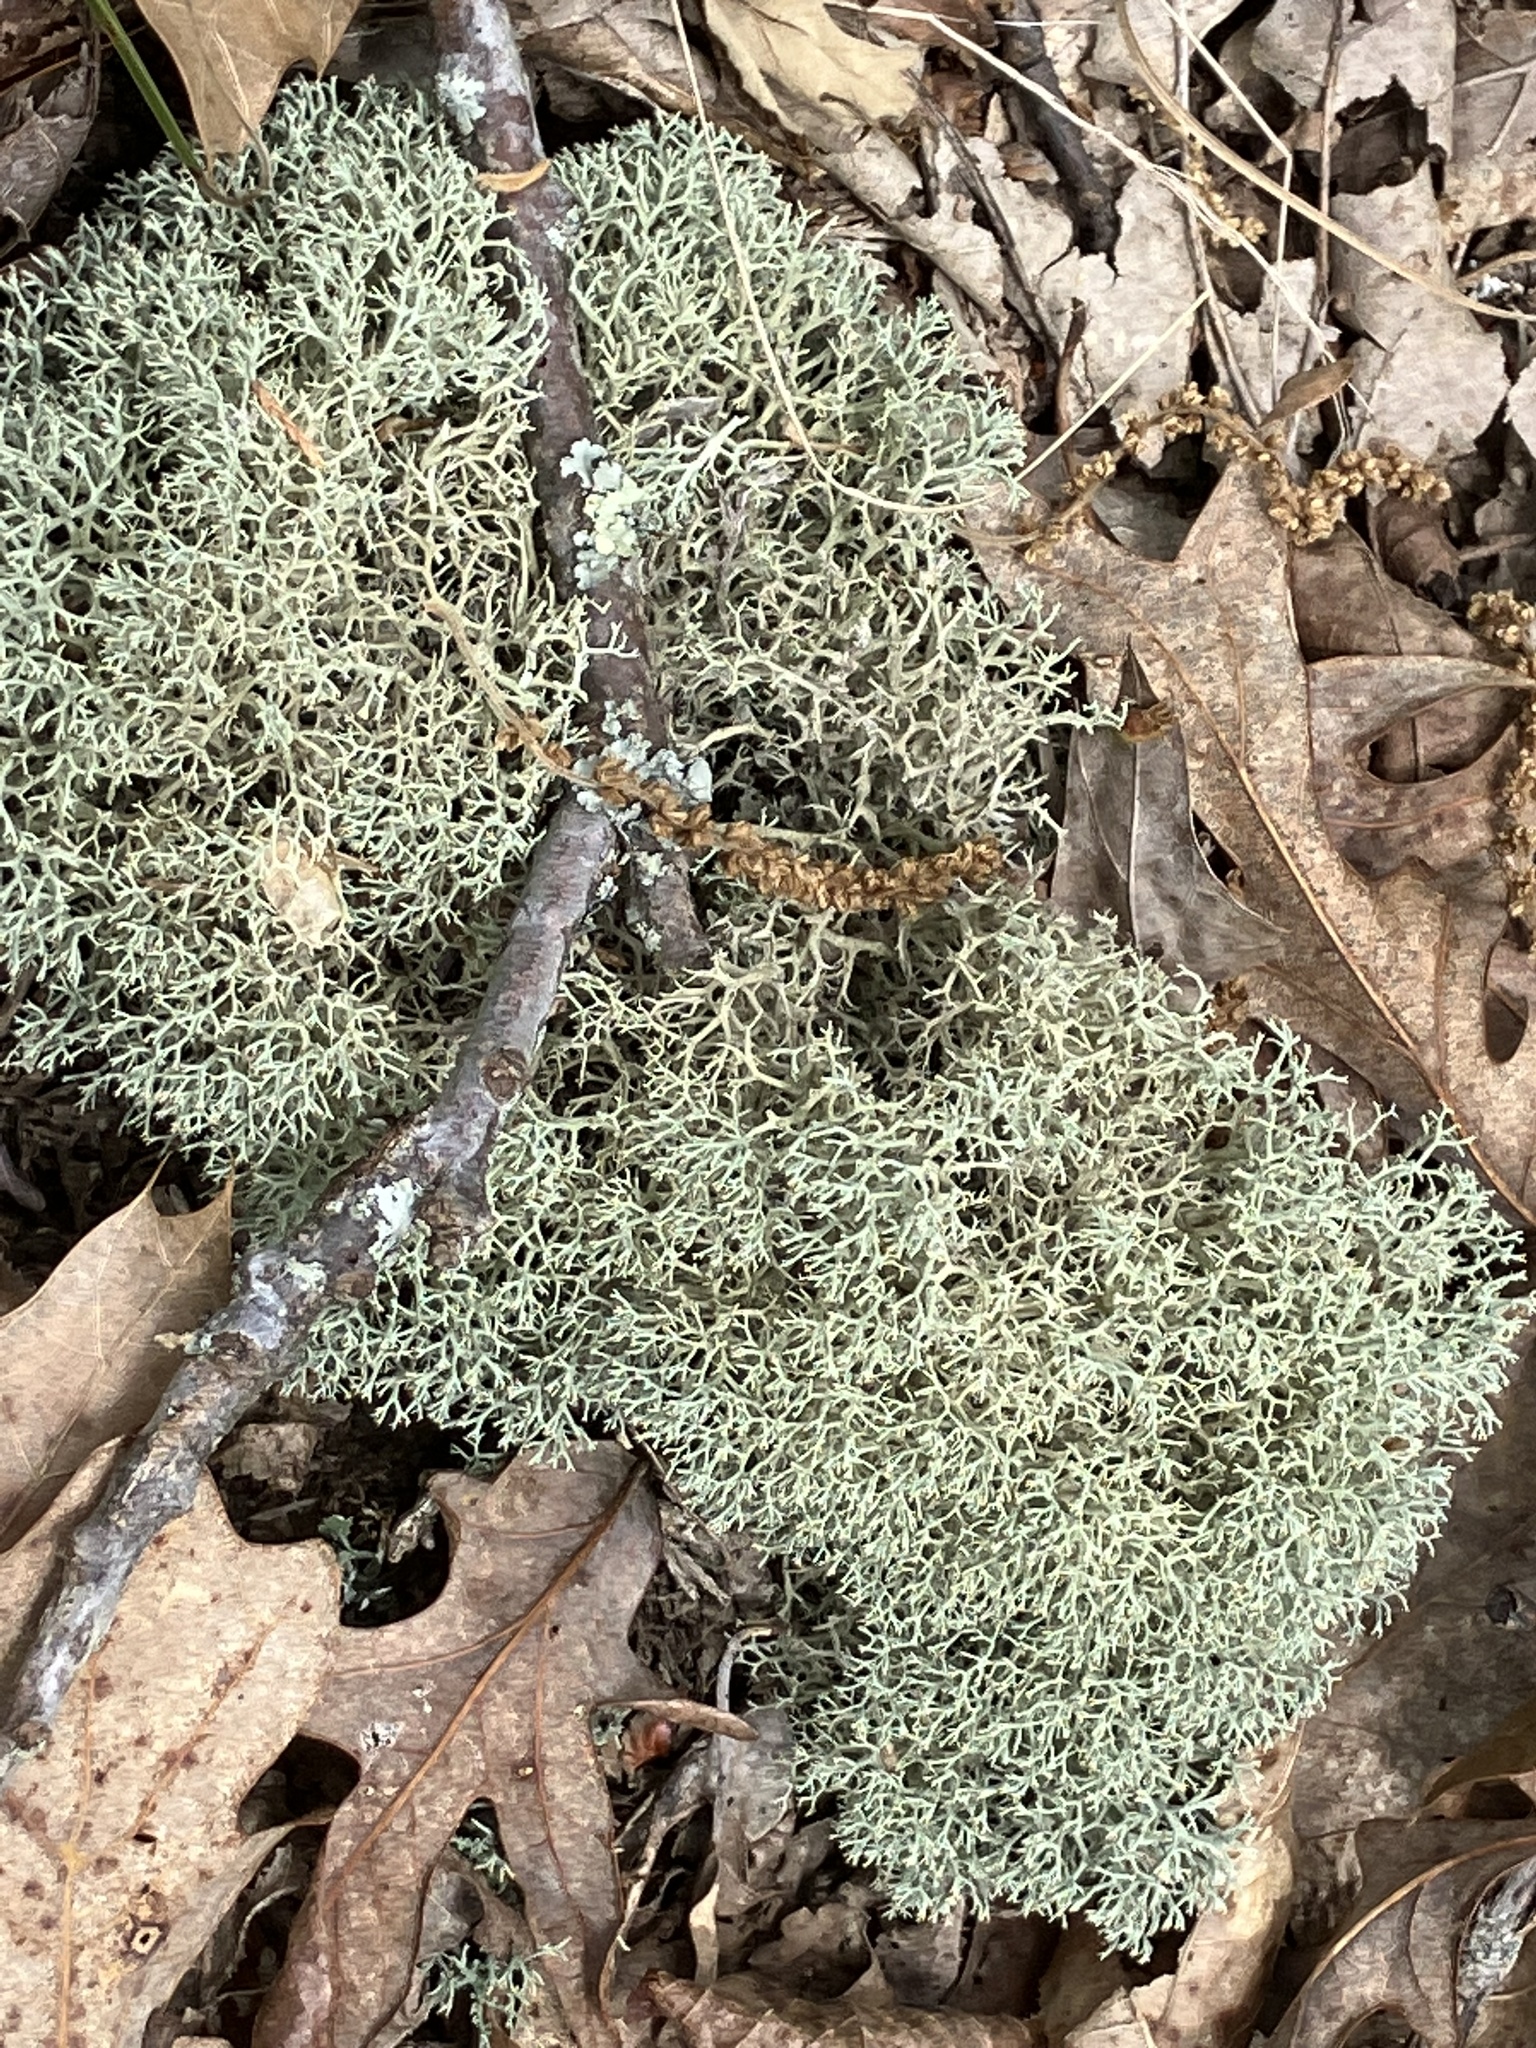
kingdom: Fungi
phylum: Ascomycota
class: Lecanoromycetes
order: Lecanorales
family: Cladoniaceae
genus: Cladonia
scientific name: Cladonia subtenuis
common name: Dixie reindeer lichen
